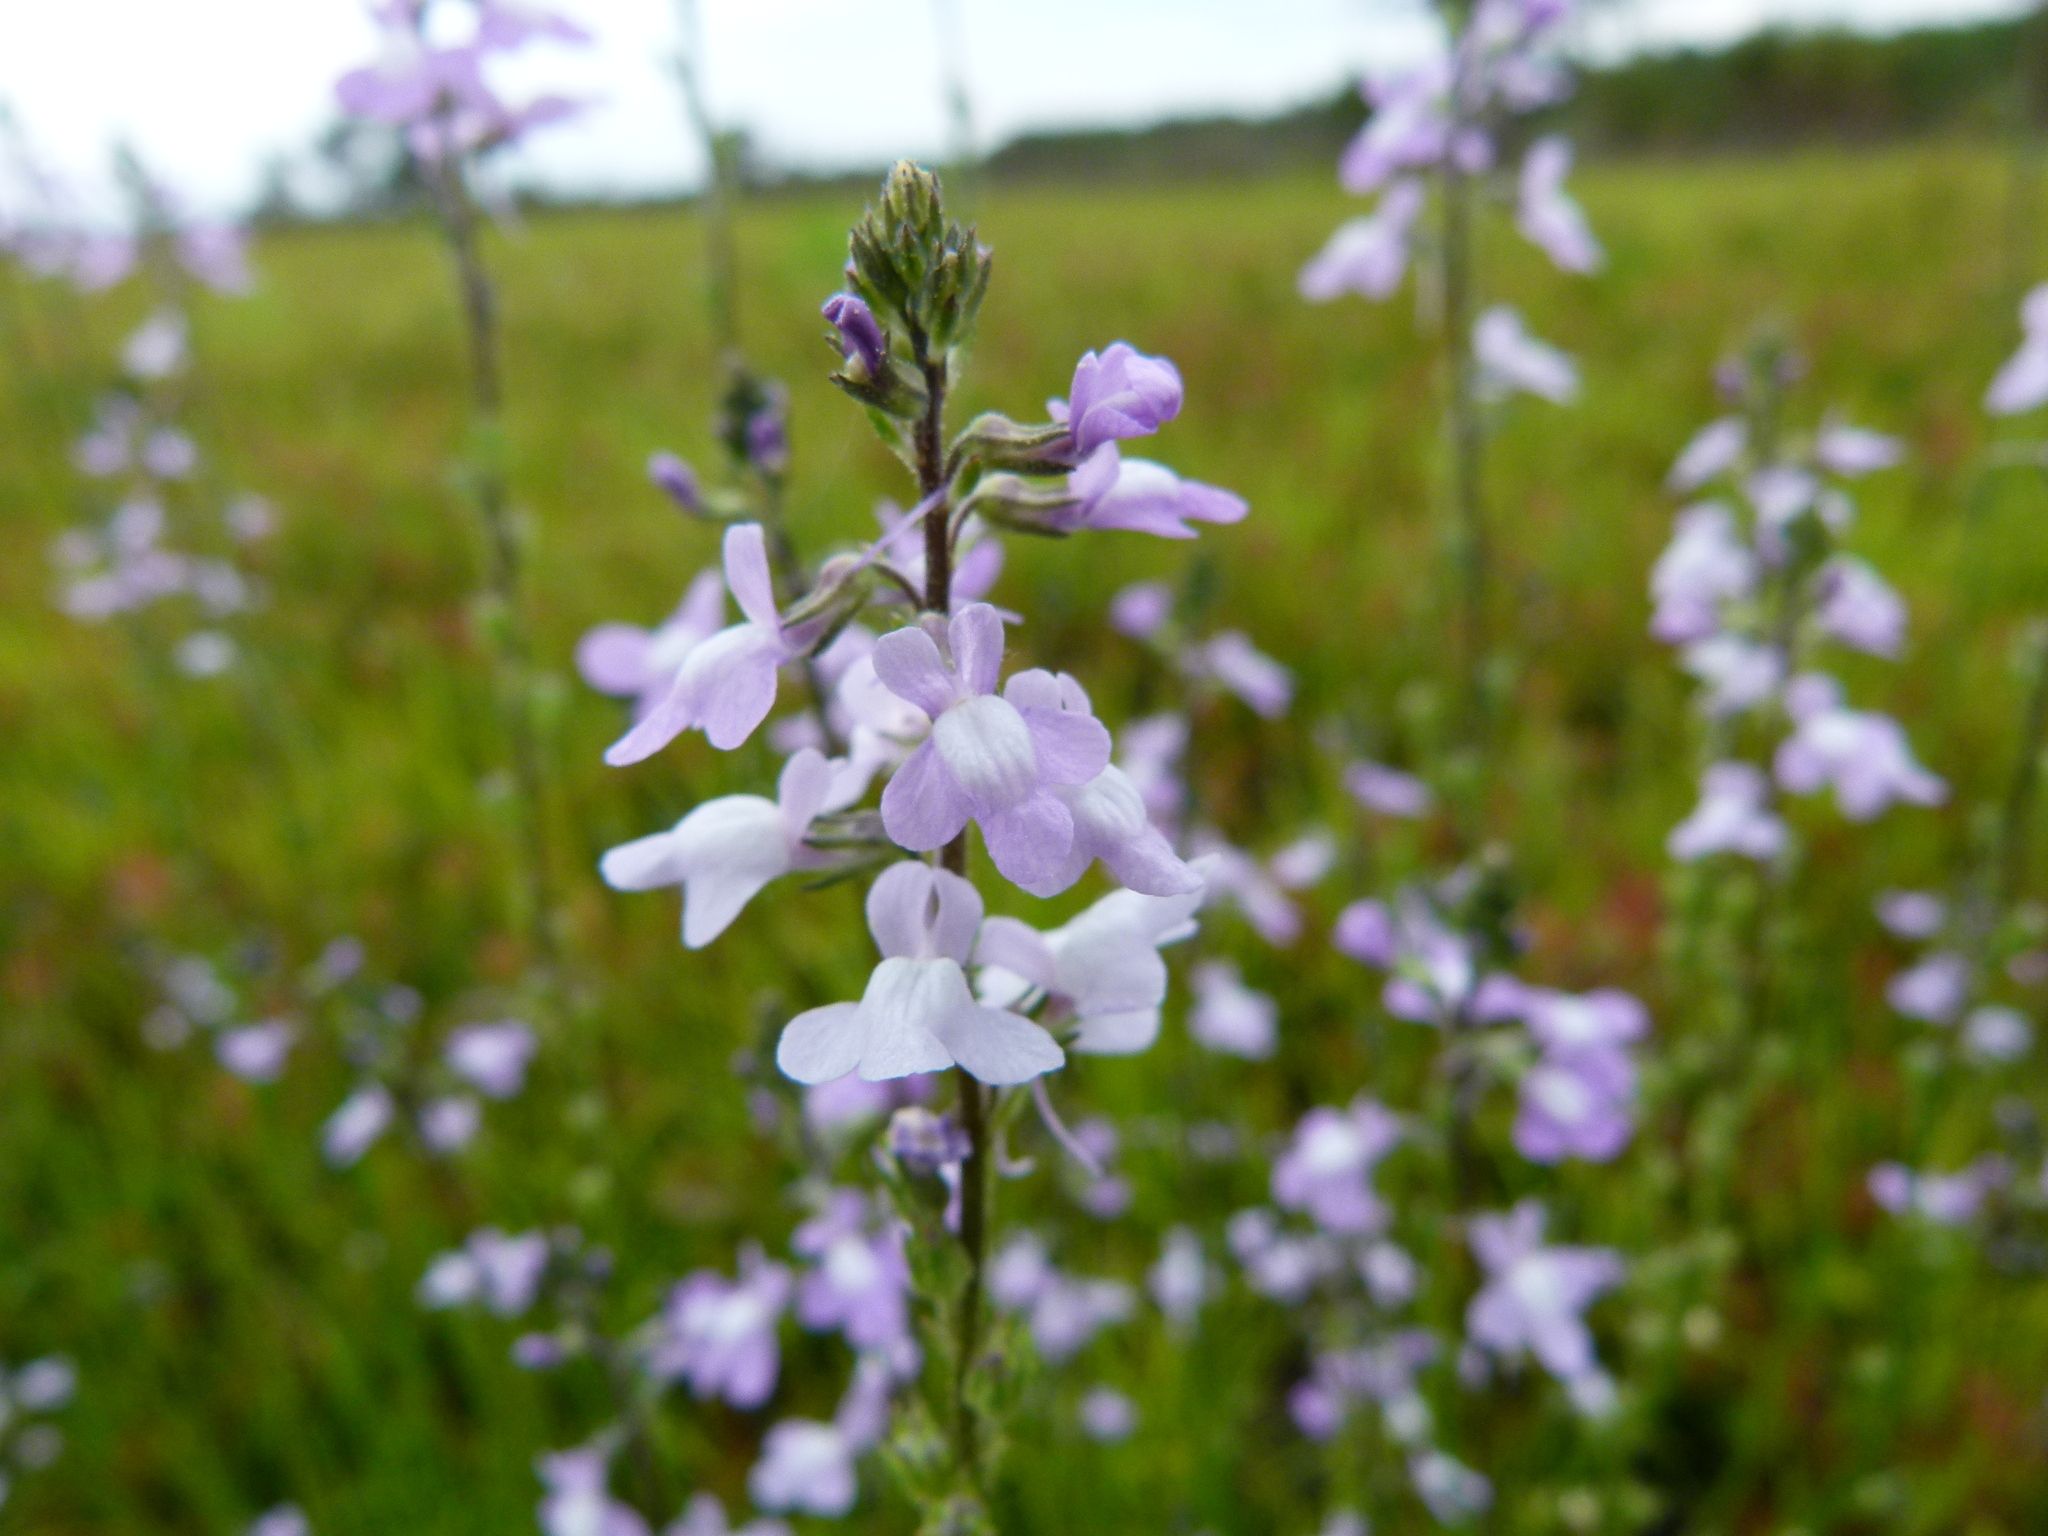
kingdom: Plantae
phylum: Tracheophyta
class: Magnoliopsida
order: Lamiales
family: Plantaginaceae
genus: Nuttallanthus
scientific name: Nuttallanthus canadensis
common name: Blue toadflax
